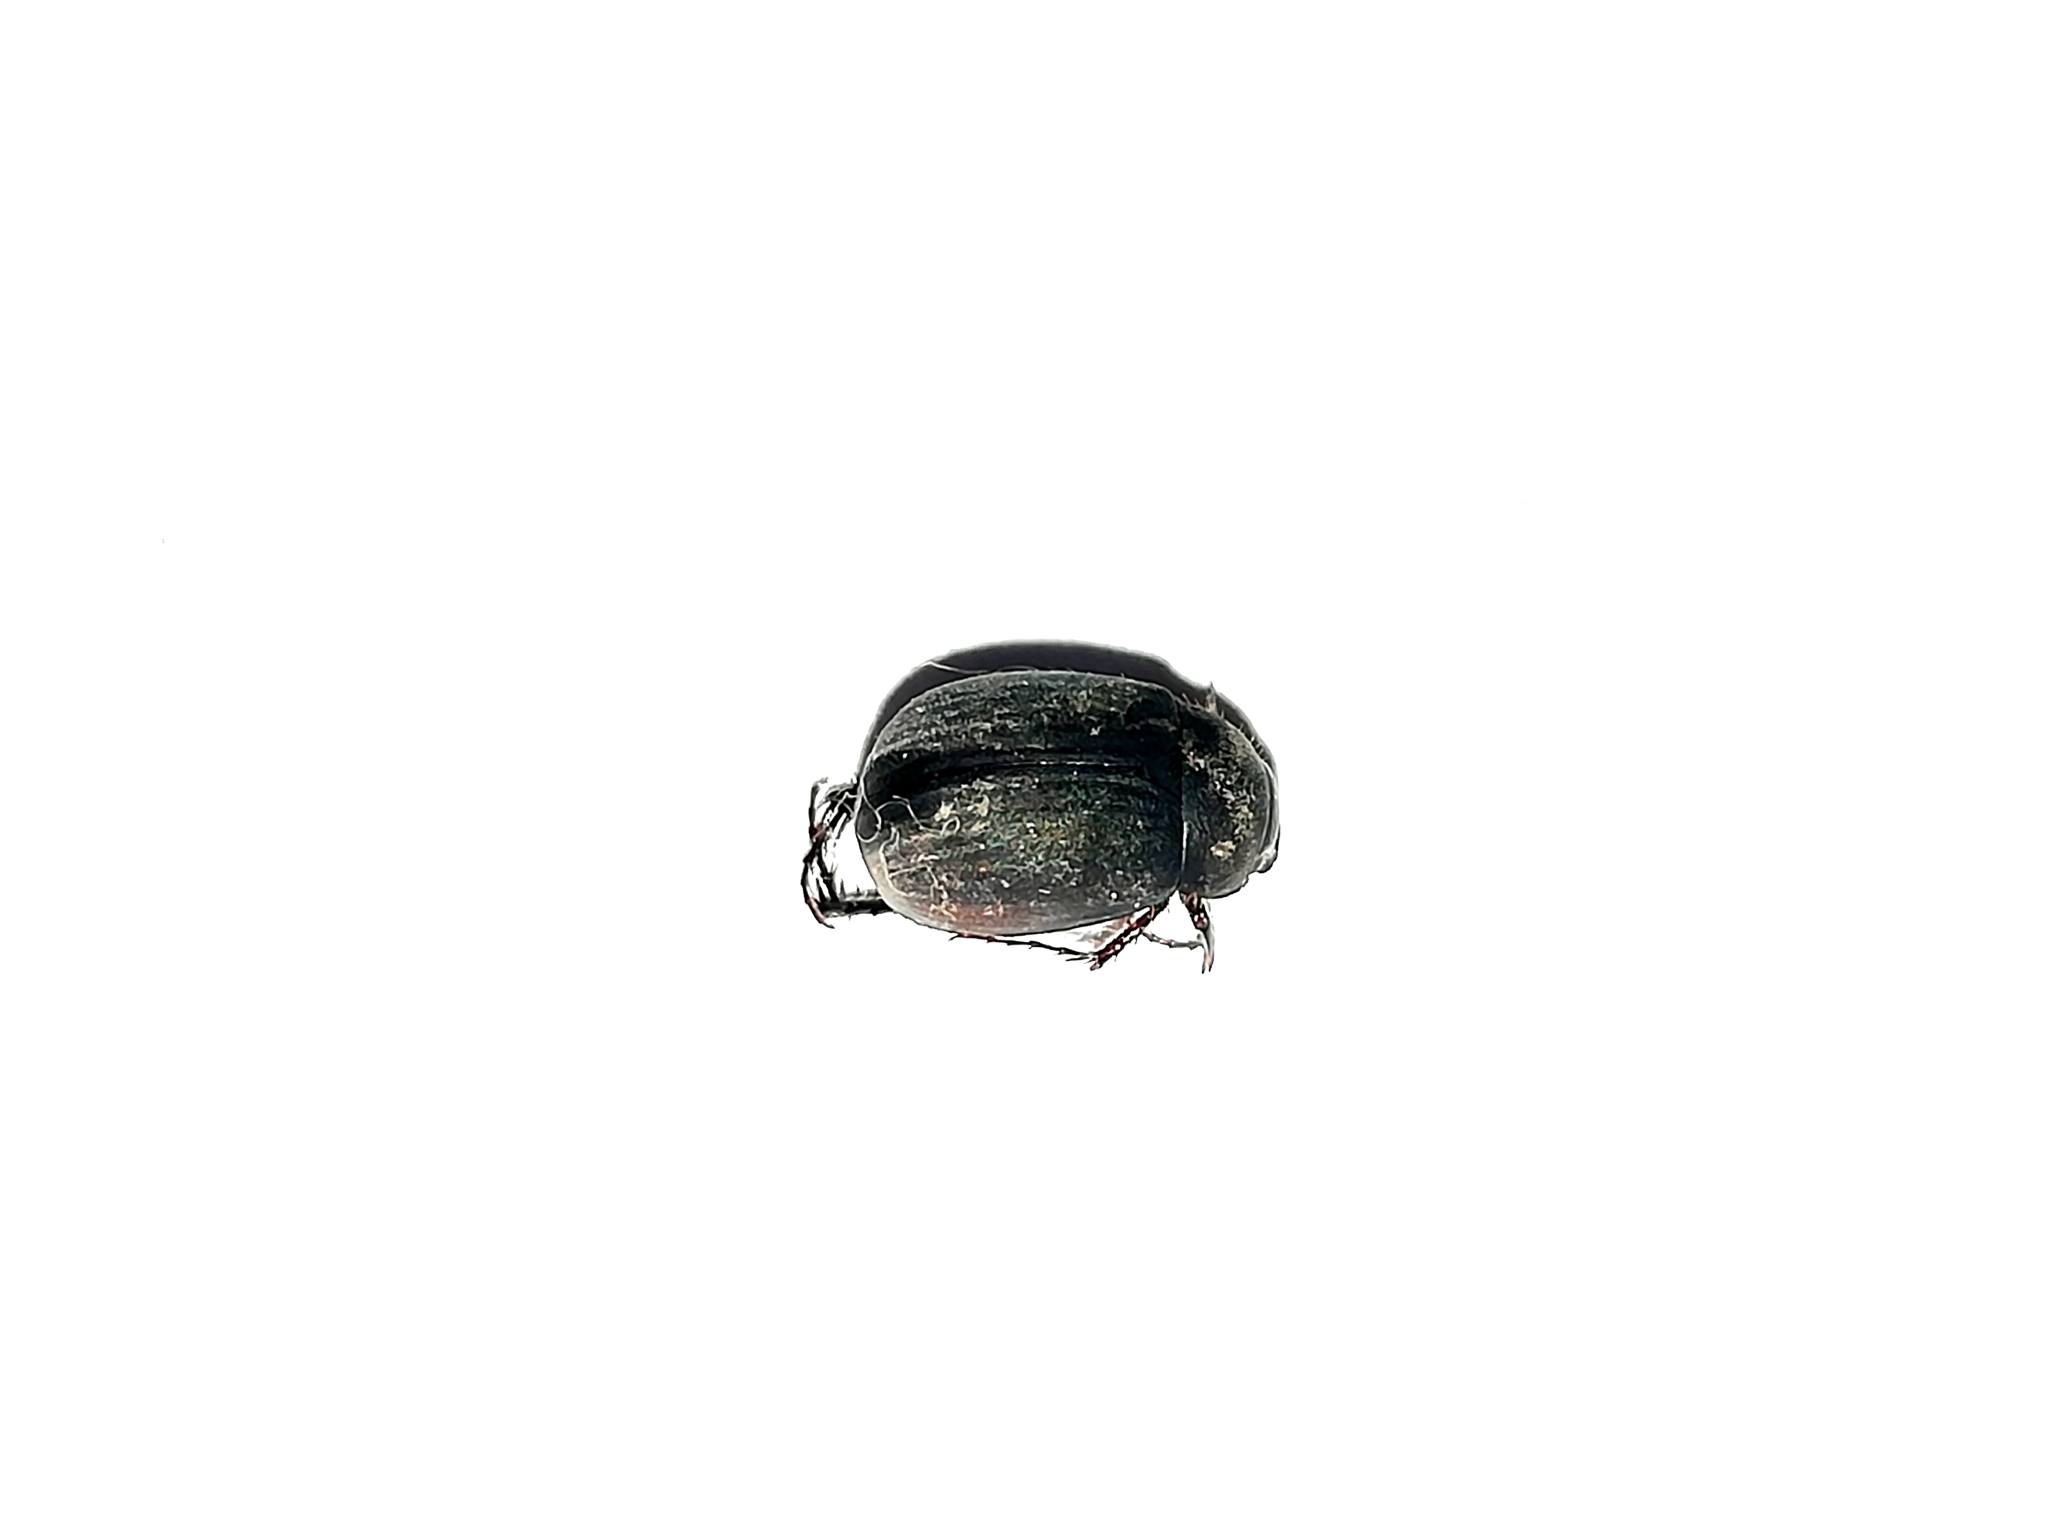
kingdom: Animalia
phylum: Arthropoda
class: Insecta
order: Coleoptera
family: Scarabaeidae
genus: Maladera
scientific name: Maladera holosericea
